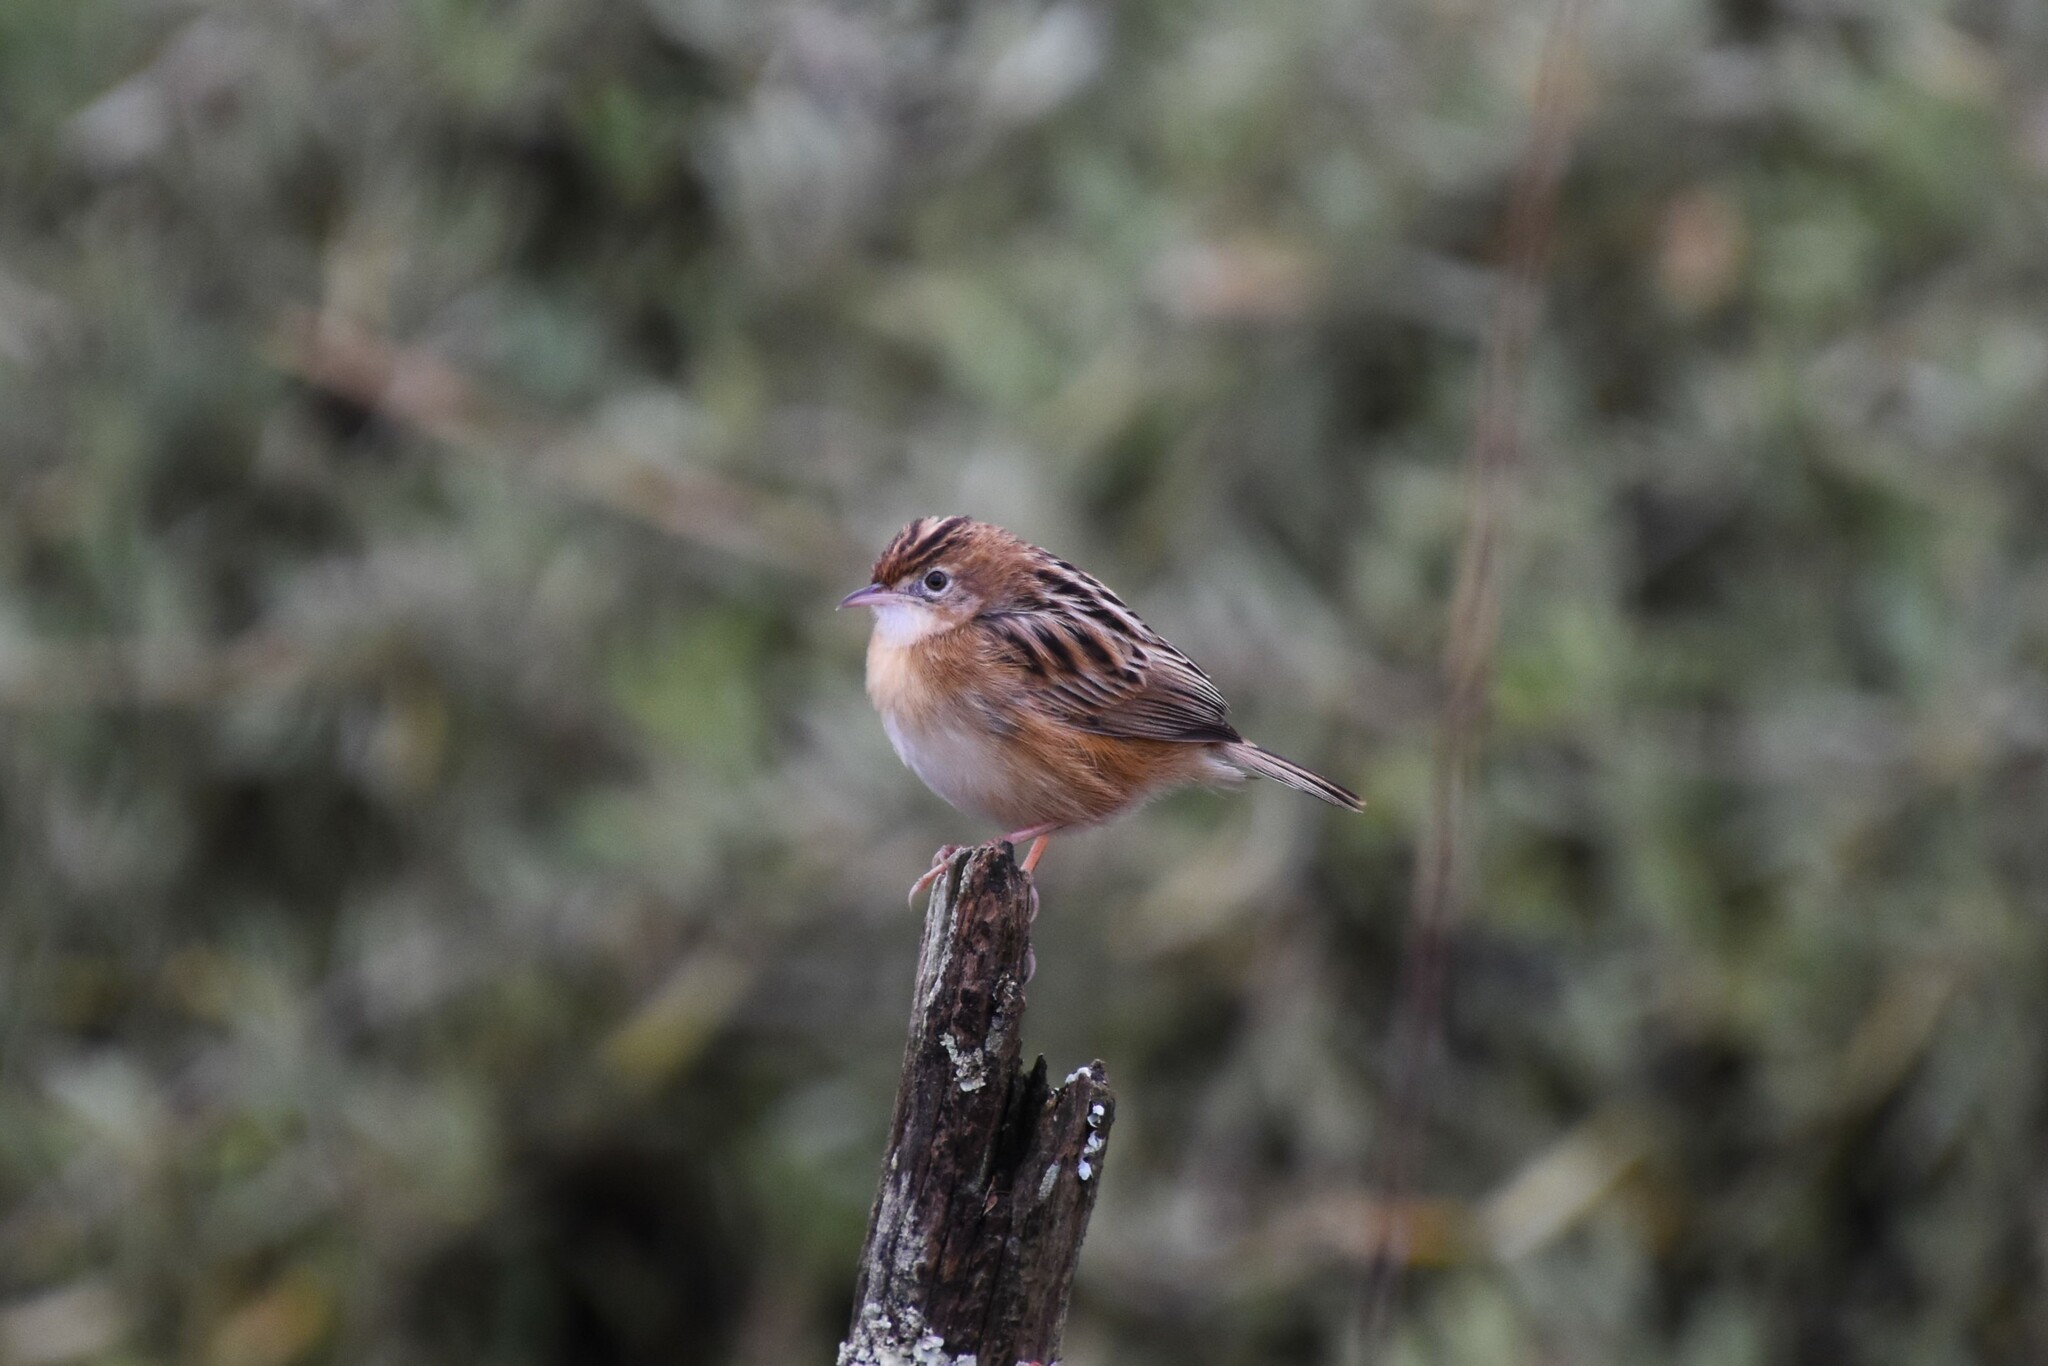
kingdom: Animalia
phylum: Chordata
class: Aves
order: Passeriformes
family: Cisticolidae
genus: Cisticola
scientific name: Cisticola juncidis
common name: Zitting cisticola
